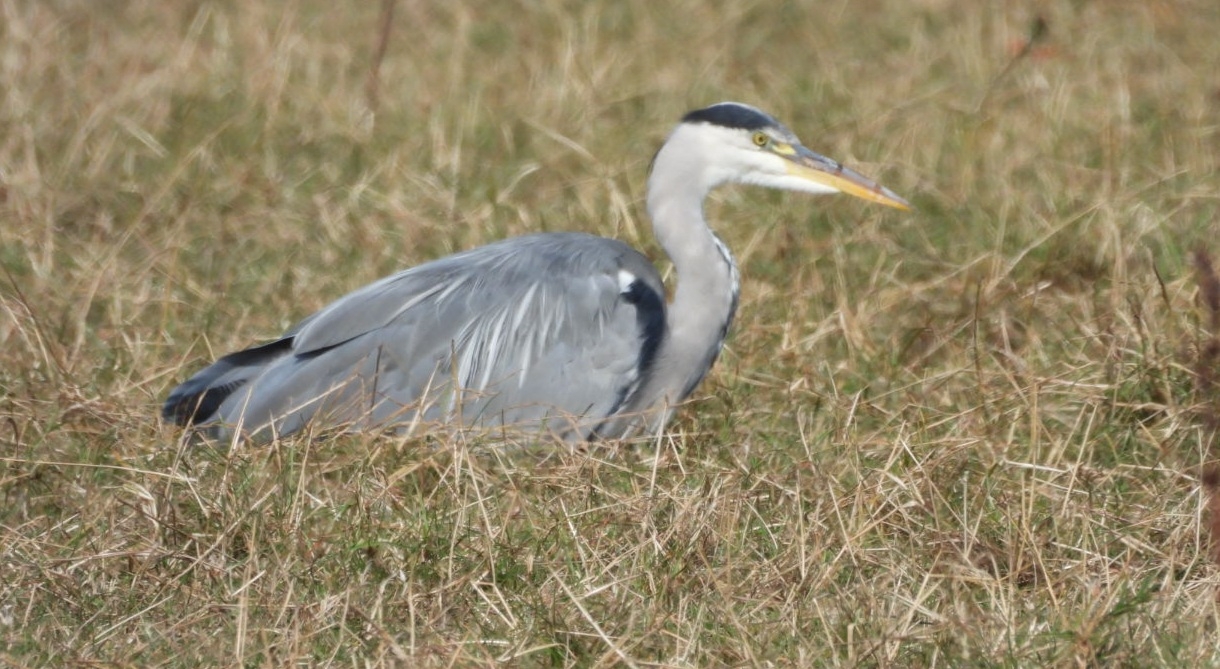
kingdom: Animalia
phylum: Chordata
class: Aves
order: Pelecaniformes
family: Ardeidae
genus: Ardea
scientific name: Ardea cinerea
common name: Grey heron
